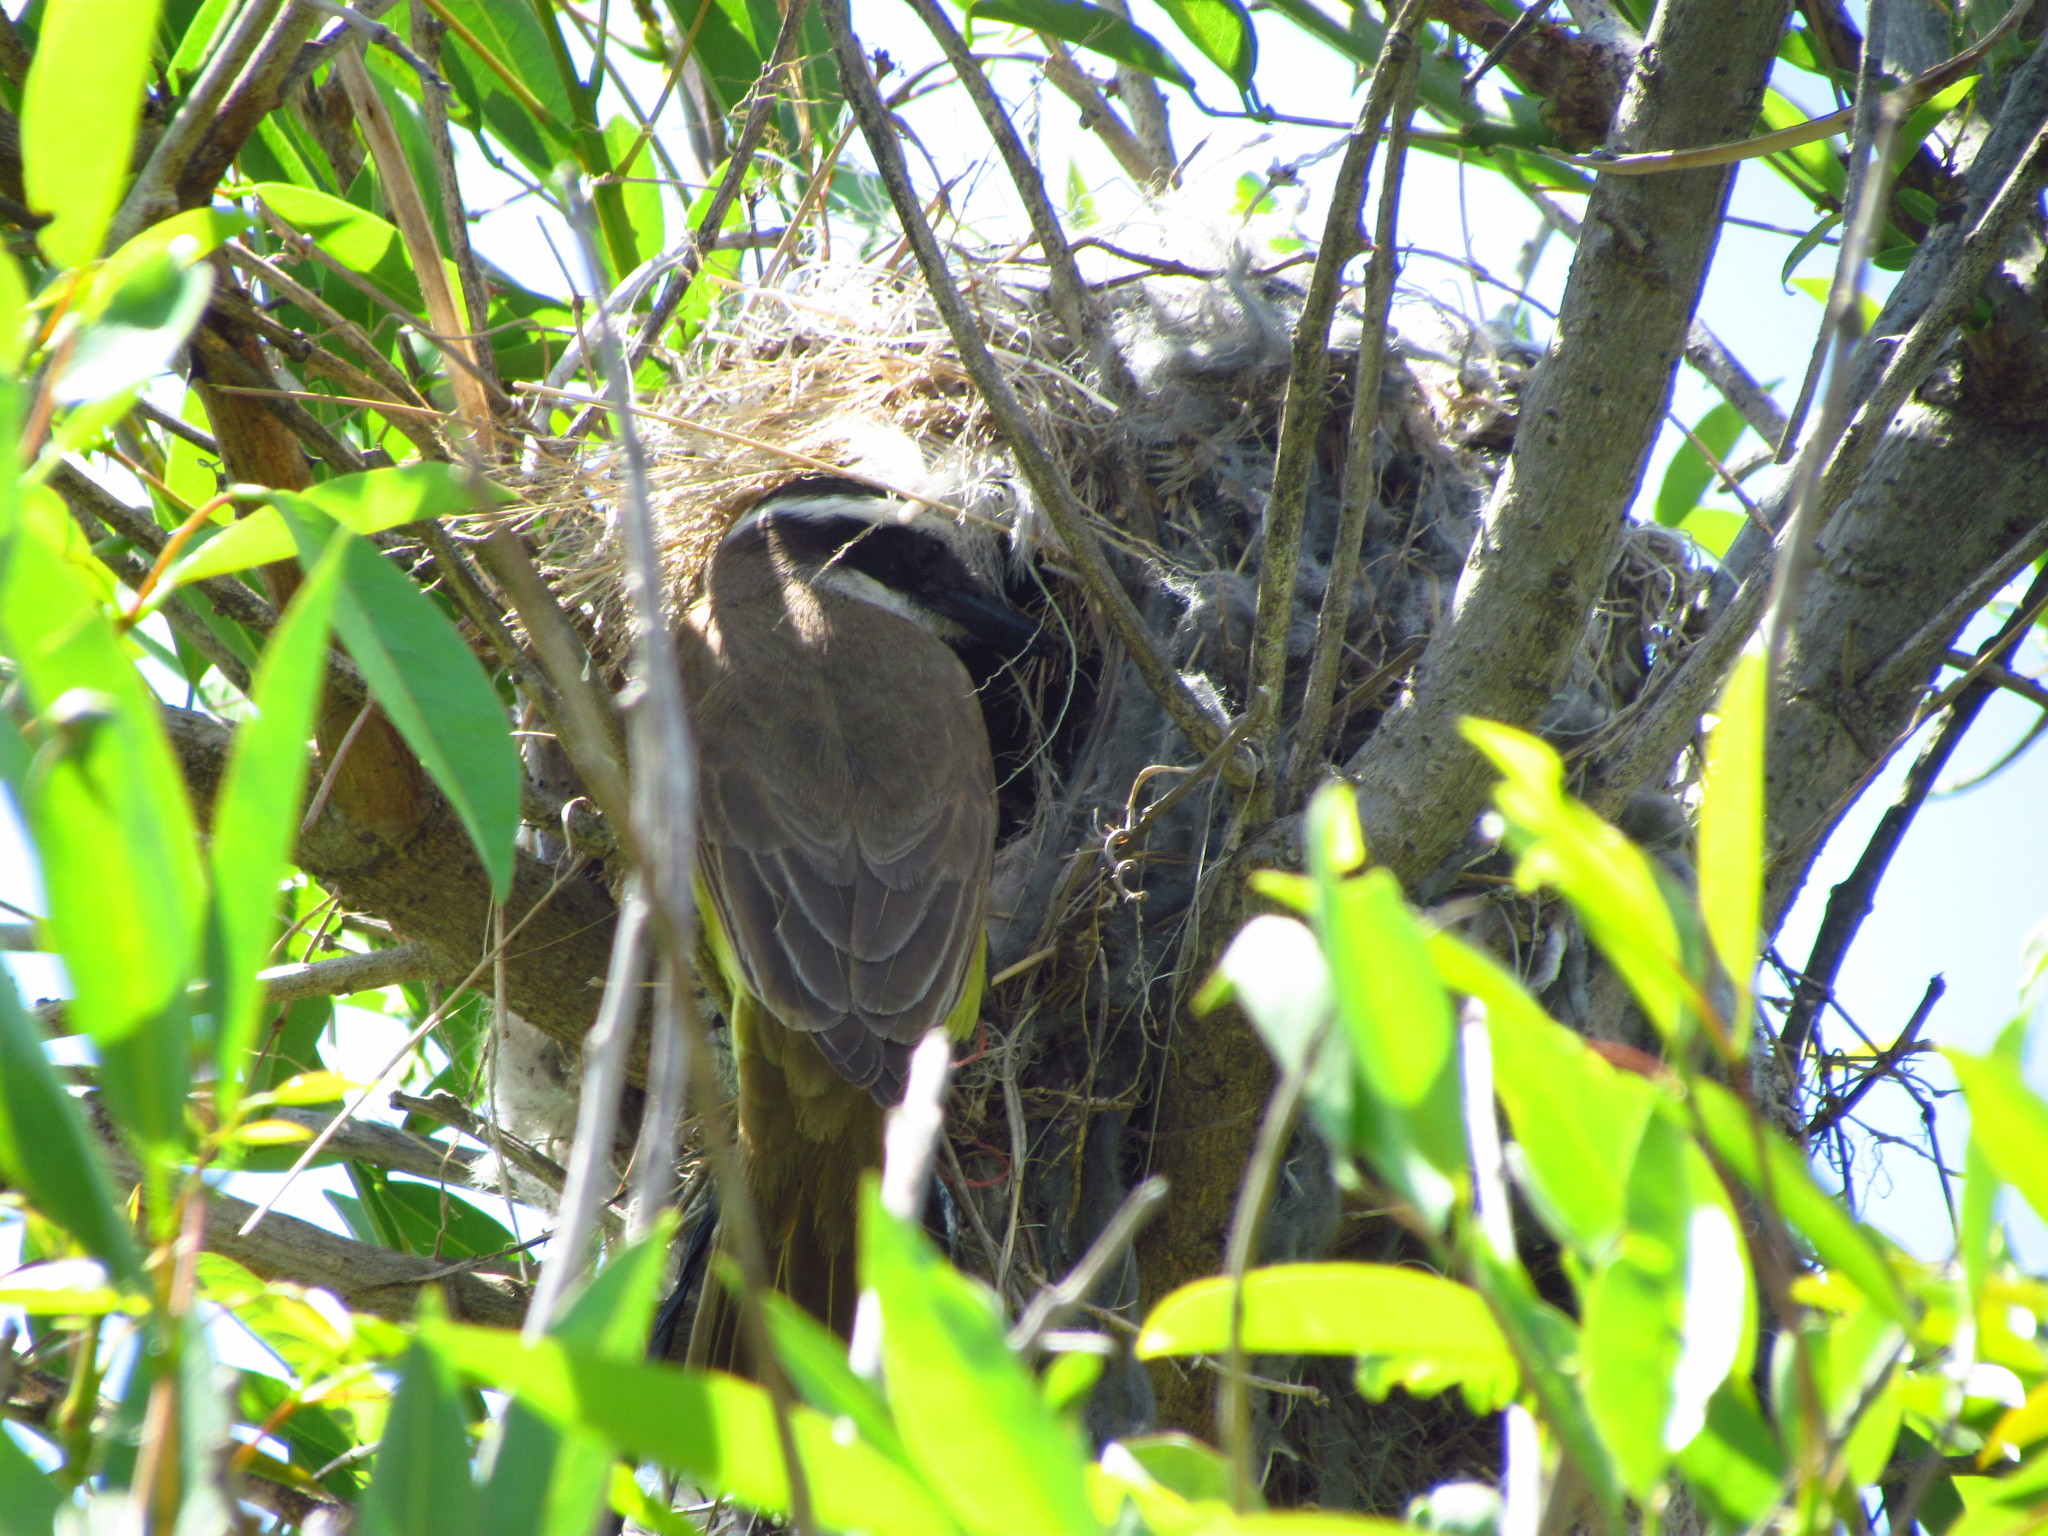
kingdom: Animalia
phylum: Chordata
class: Aves
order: Passeriformes
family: Tyrannidae
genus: Pitangus
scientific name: Pitangus sulphuratus
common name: Great kiskadee
